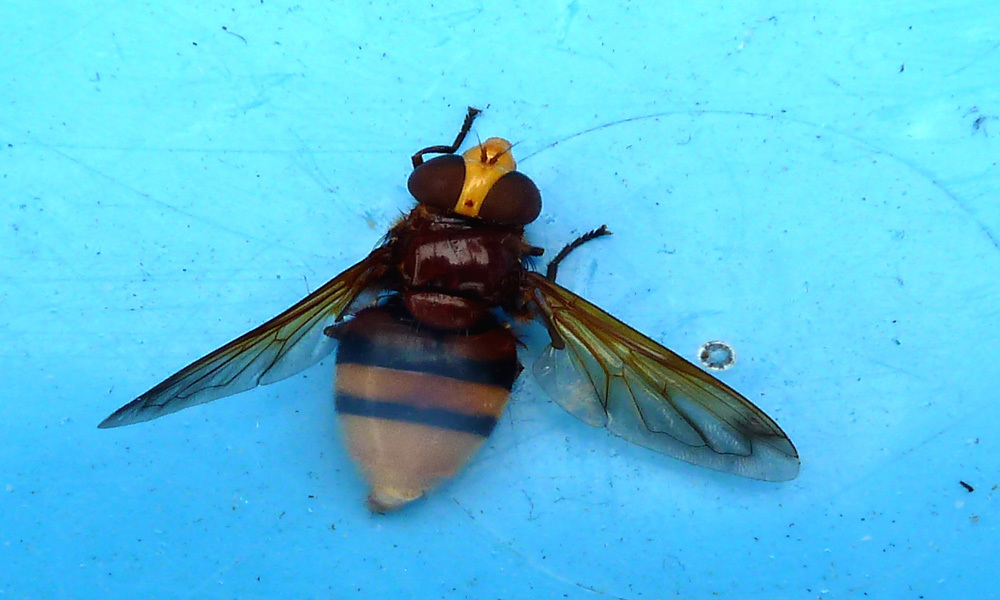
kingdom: Animalia
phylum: Arthropoda
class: Insecta
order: Diptera
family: Syrphidae
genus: Volucella
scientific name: Volucella zonaria
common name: Hornet hoverfly
